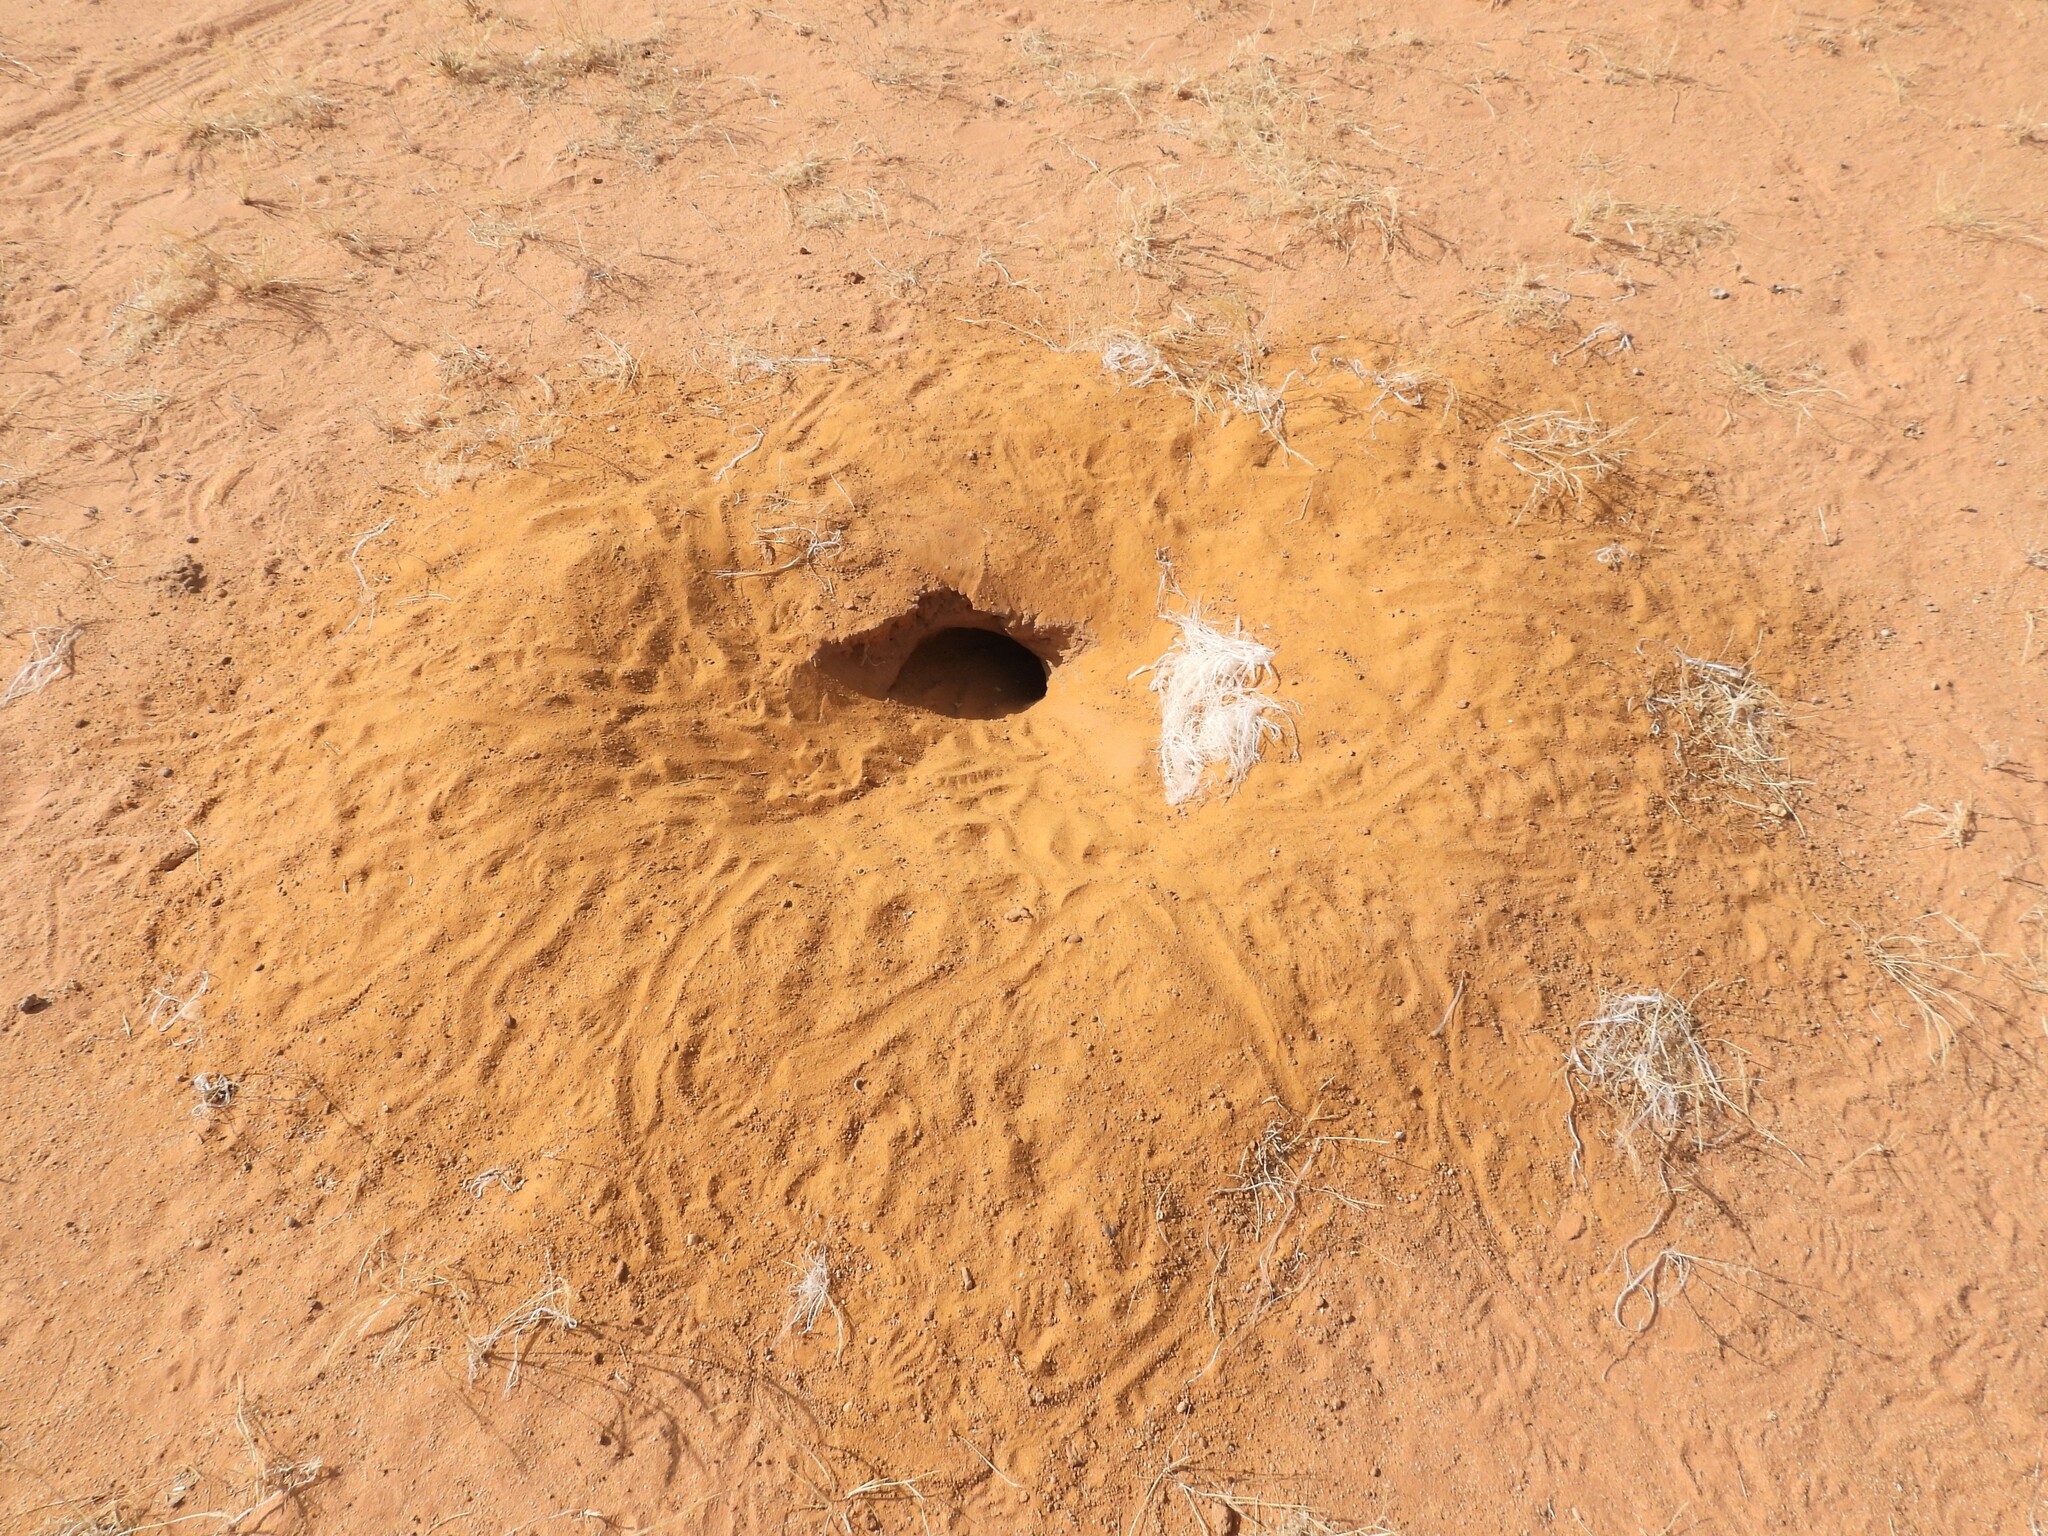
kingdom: Animalia
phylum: Chordata
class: Squamata
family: Agamidae
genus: Uromastyx
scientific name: Uromastyx aegyptia
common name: Egyptian mastigure
